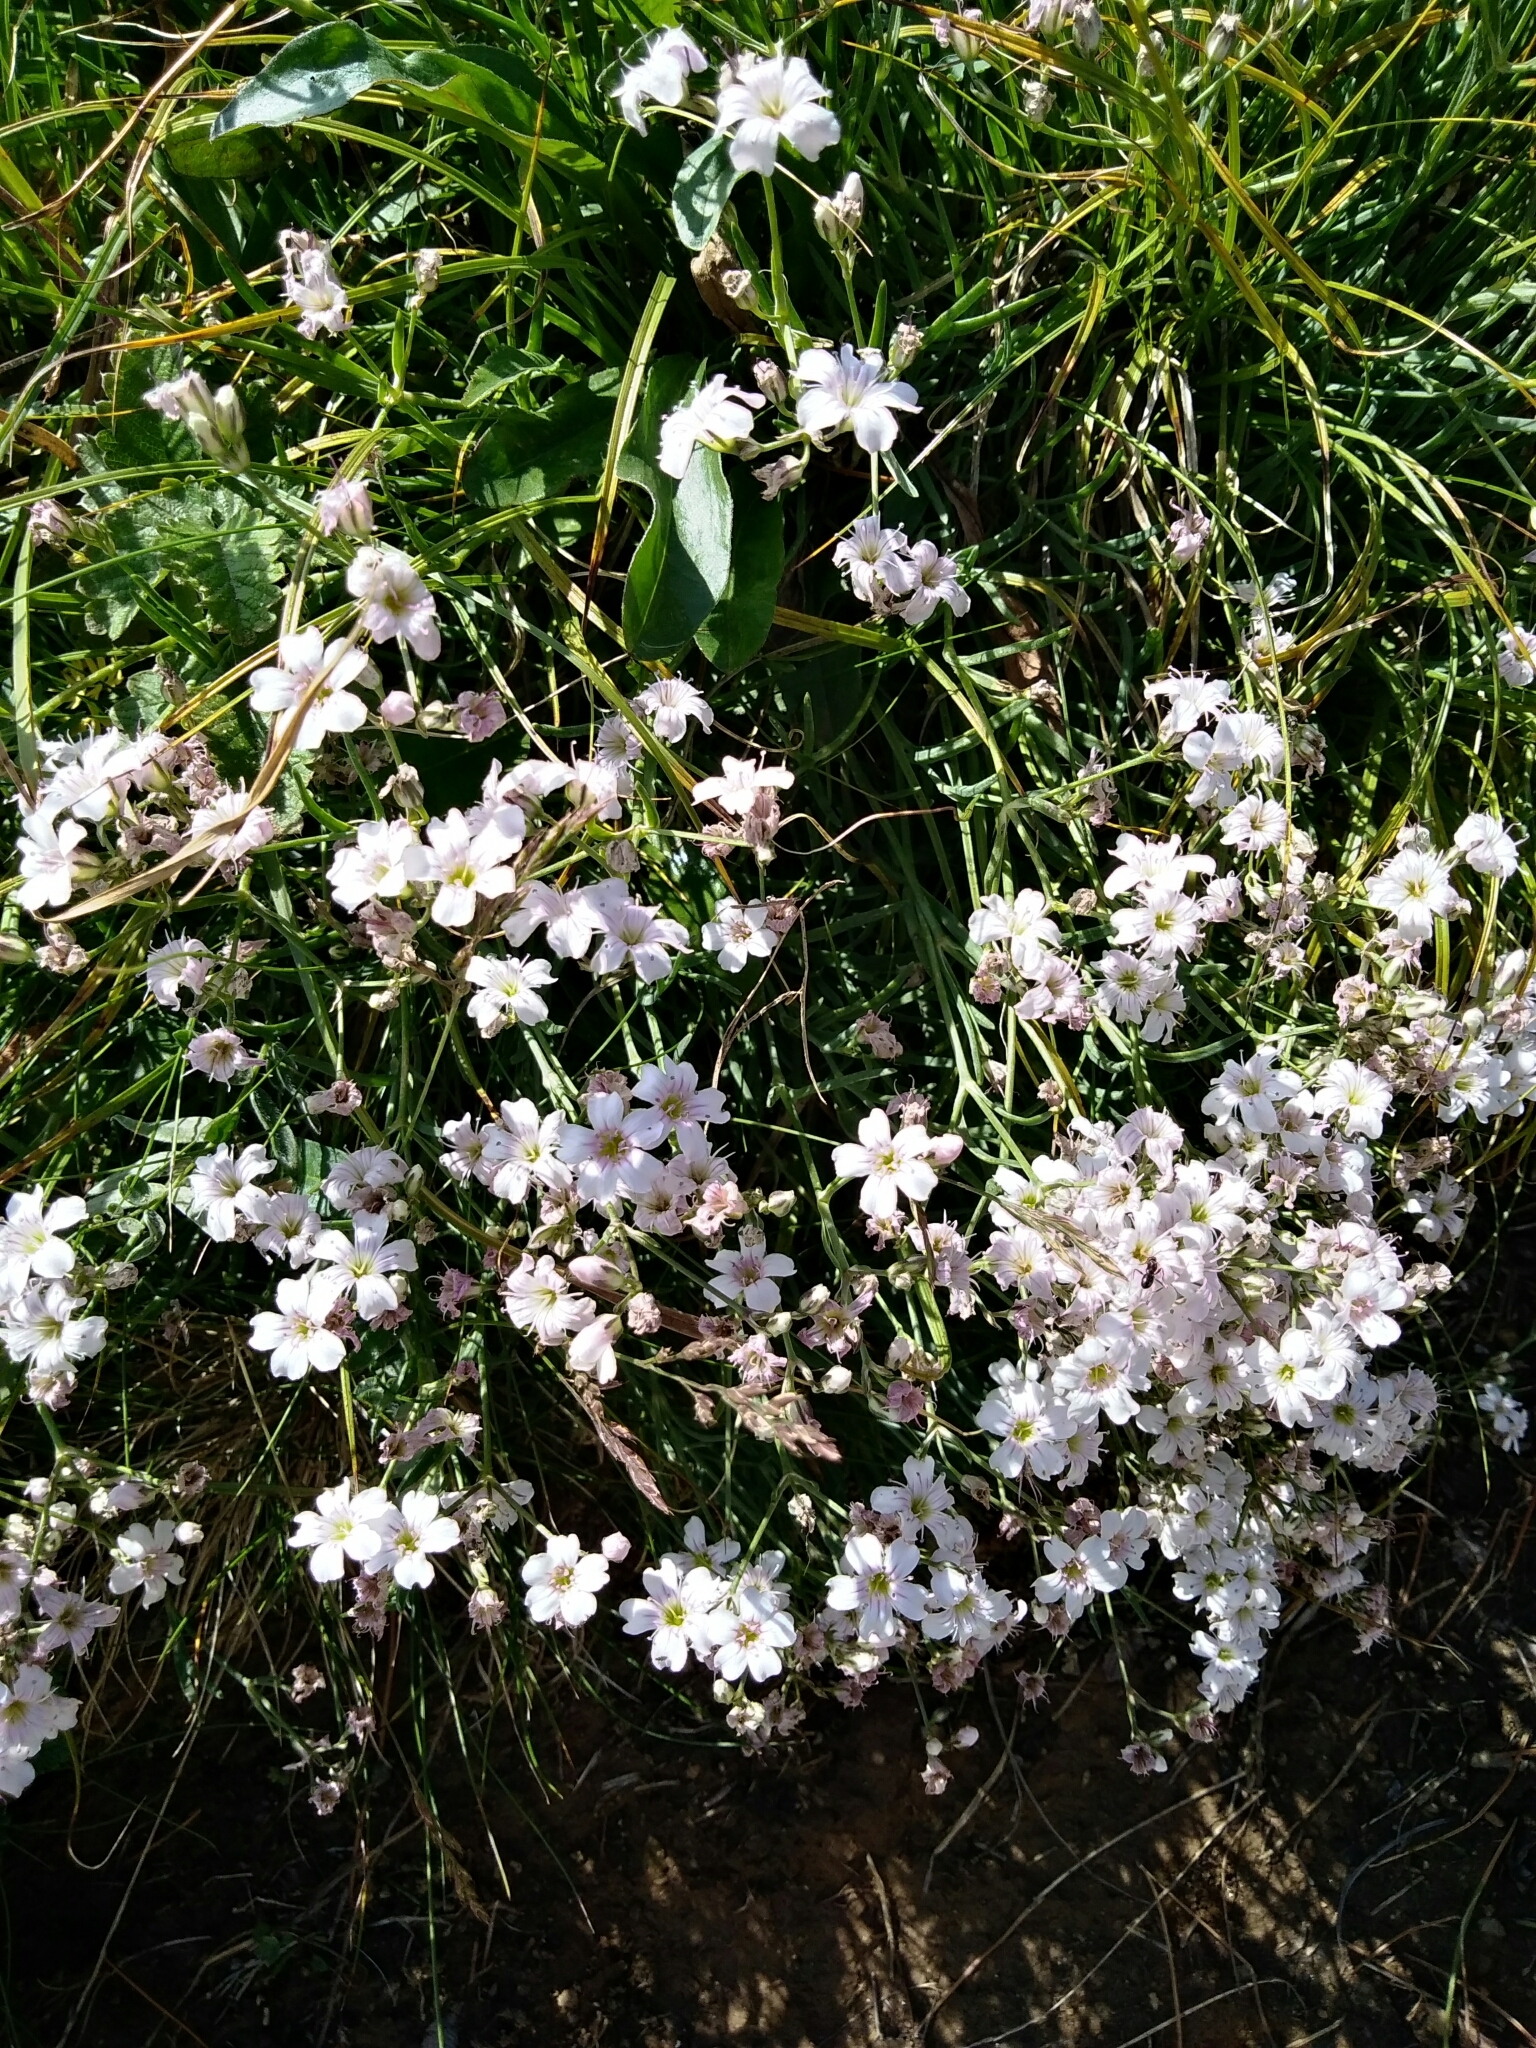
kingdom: Plantae
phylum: Tracheophyta
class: Magnoliopsida
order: Caryophyllales
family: Caryophyllaceae
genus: Gypsophila
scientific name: Gypsophila patrinii
